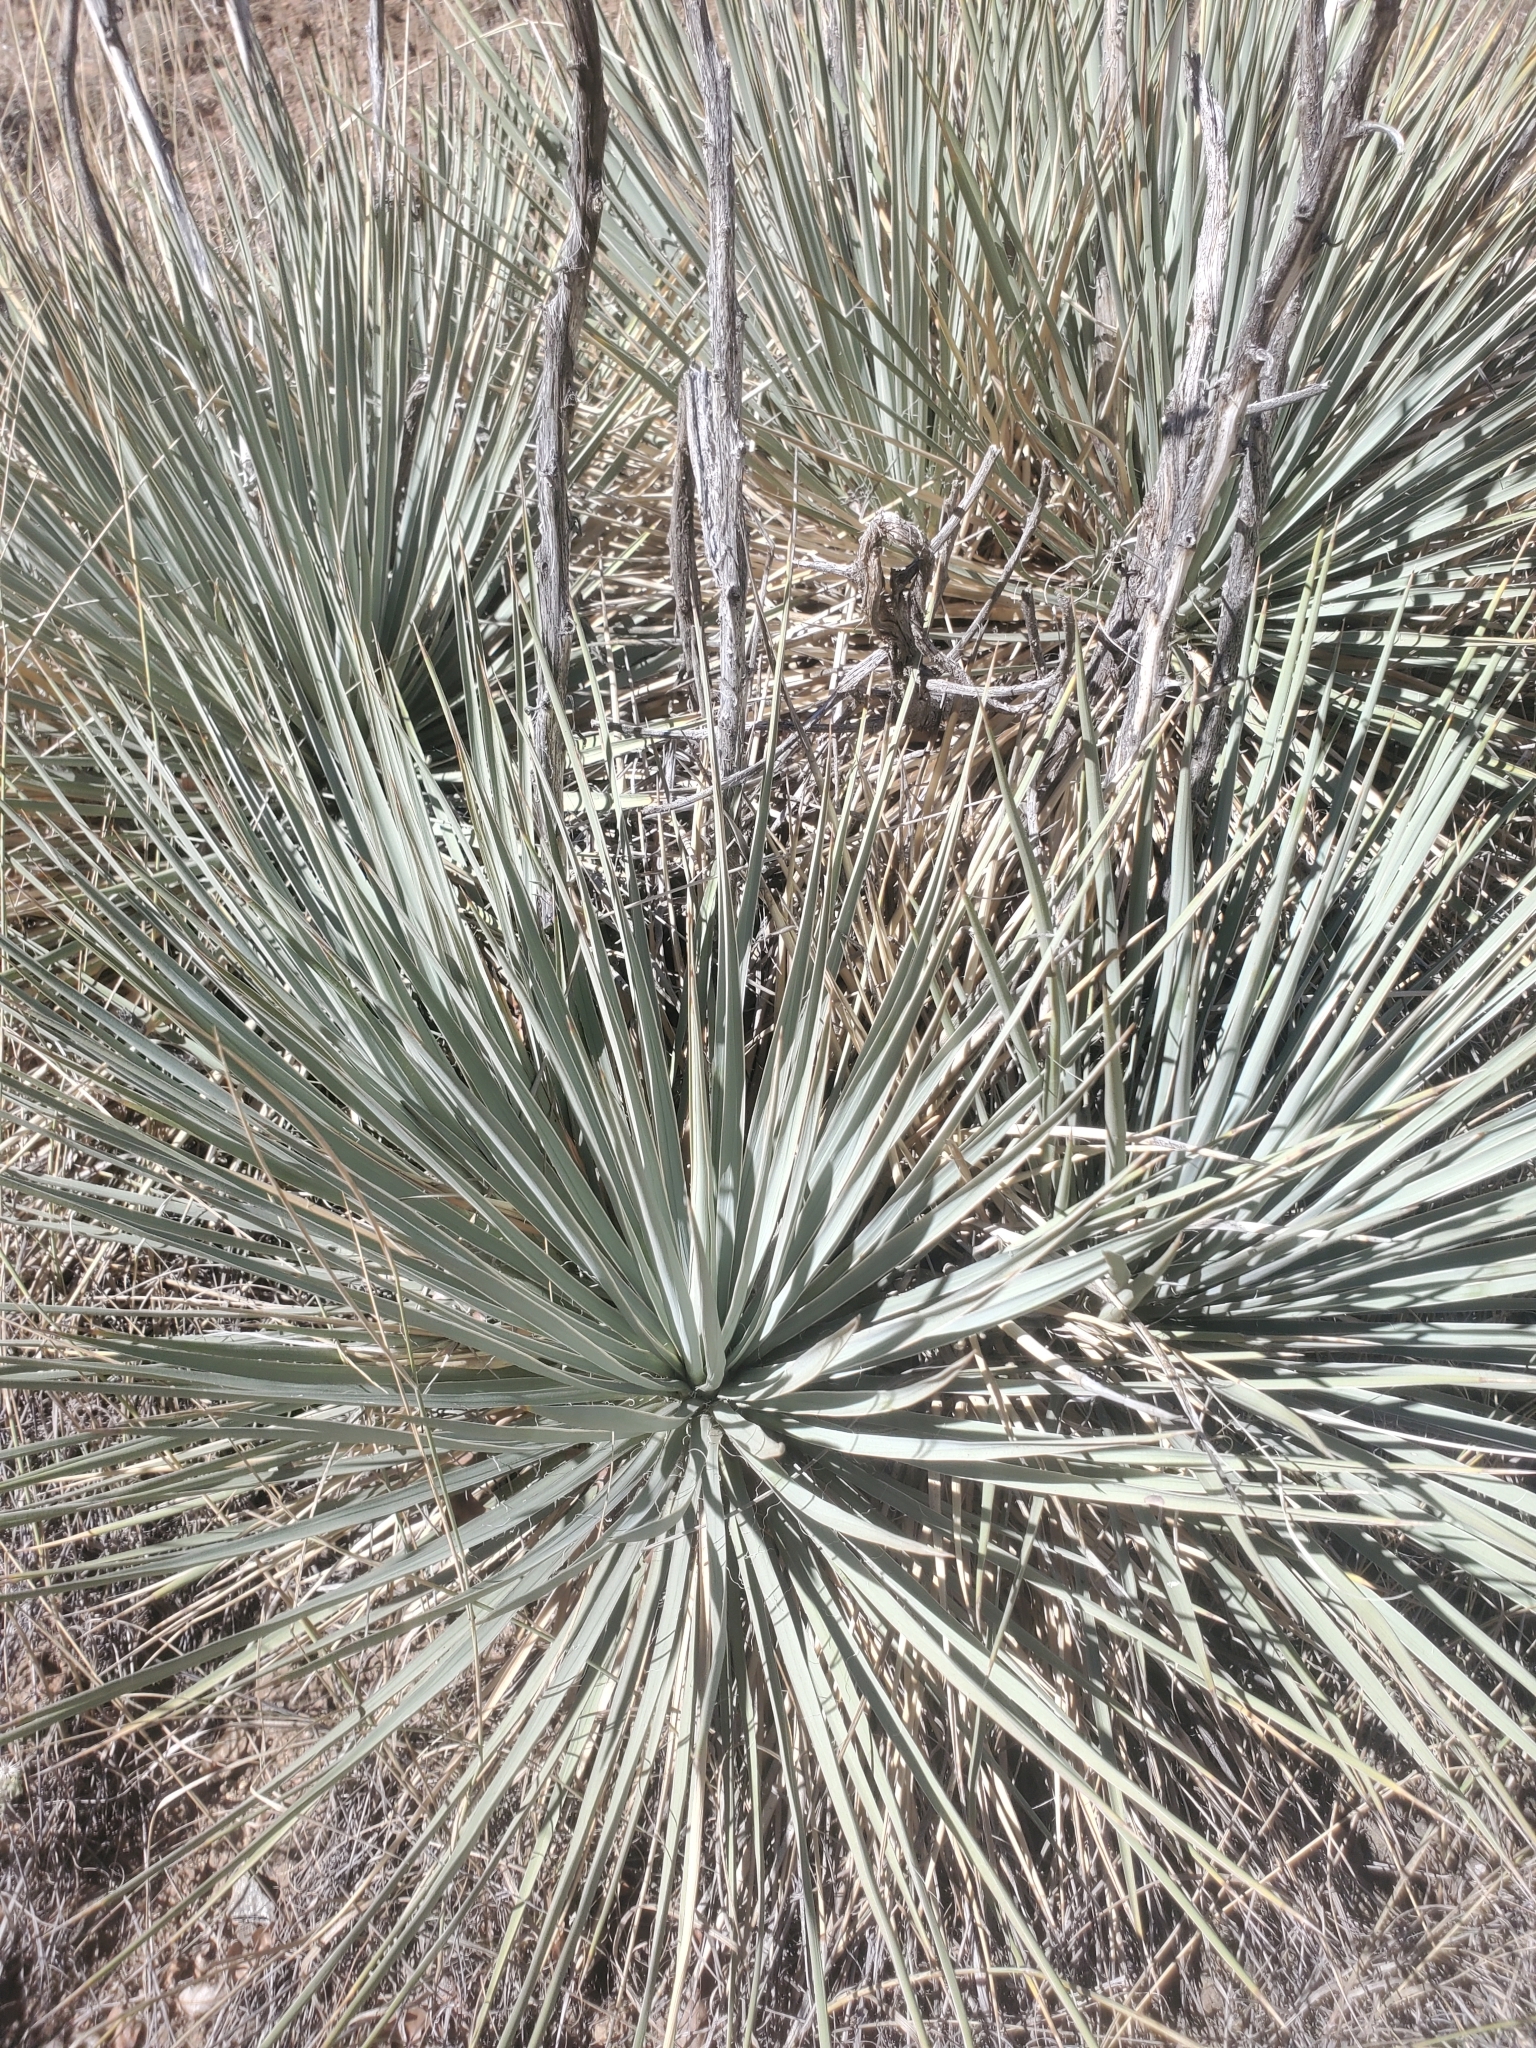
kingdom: Plantae
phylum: Tracheophyta
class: Liliopsida
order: Asparagales
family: Asparagaceae
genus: Yucca
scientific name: Yucca glauca
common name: Great plains yucca
